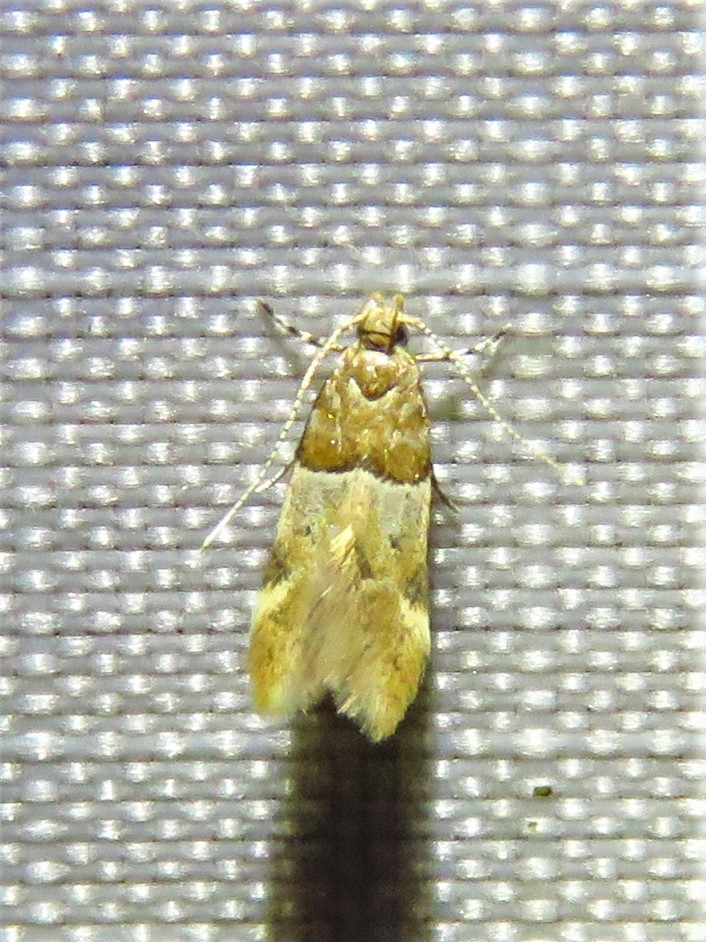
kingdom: Animalia
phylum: Arthropoda
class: Insecta
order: Lepidoptera
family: Gelechiidae
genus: Theisoa
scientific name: Theisoa constrictella
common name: Constricted twirler
